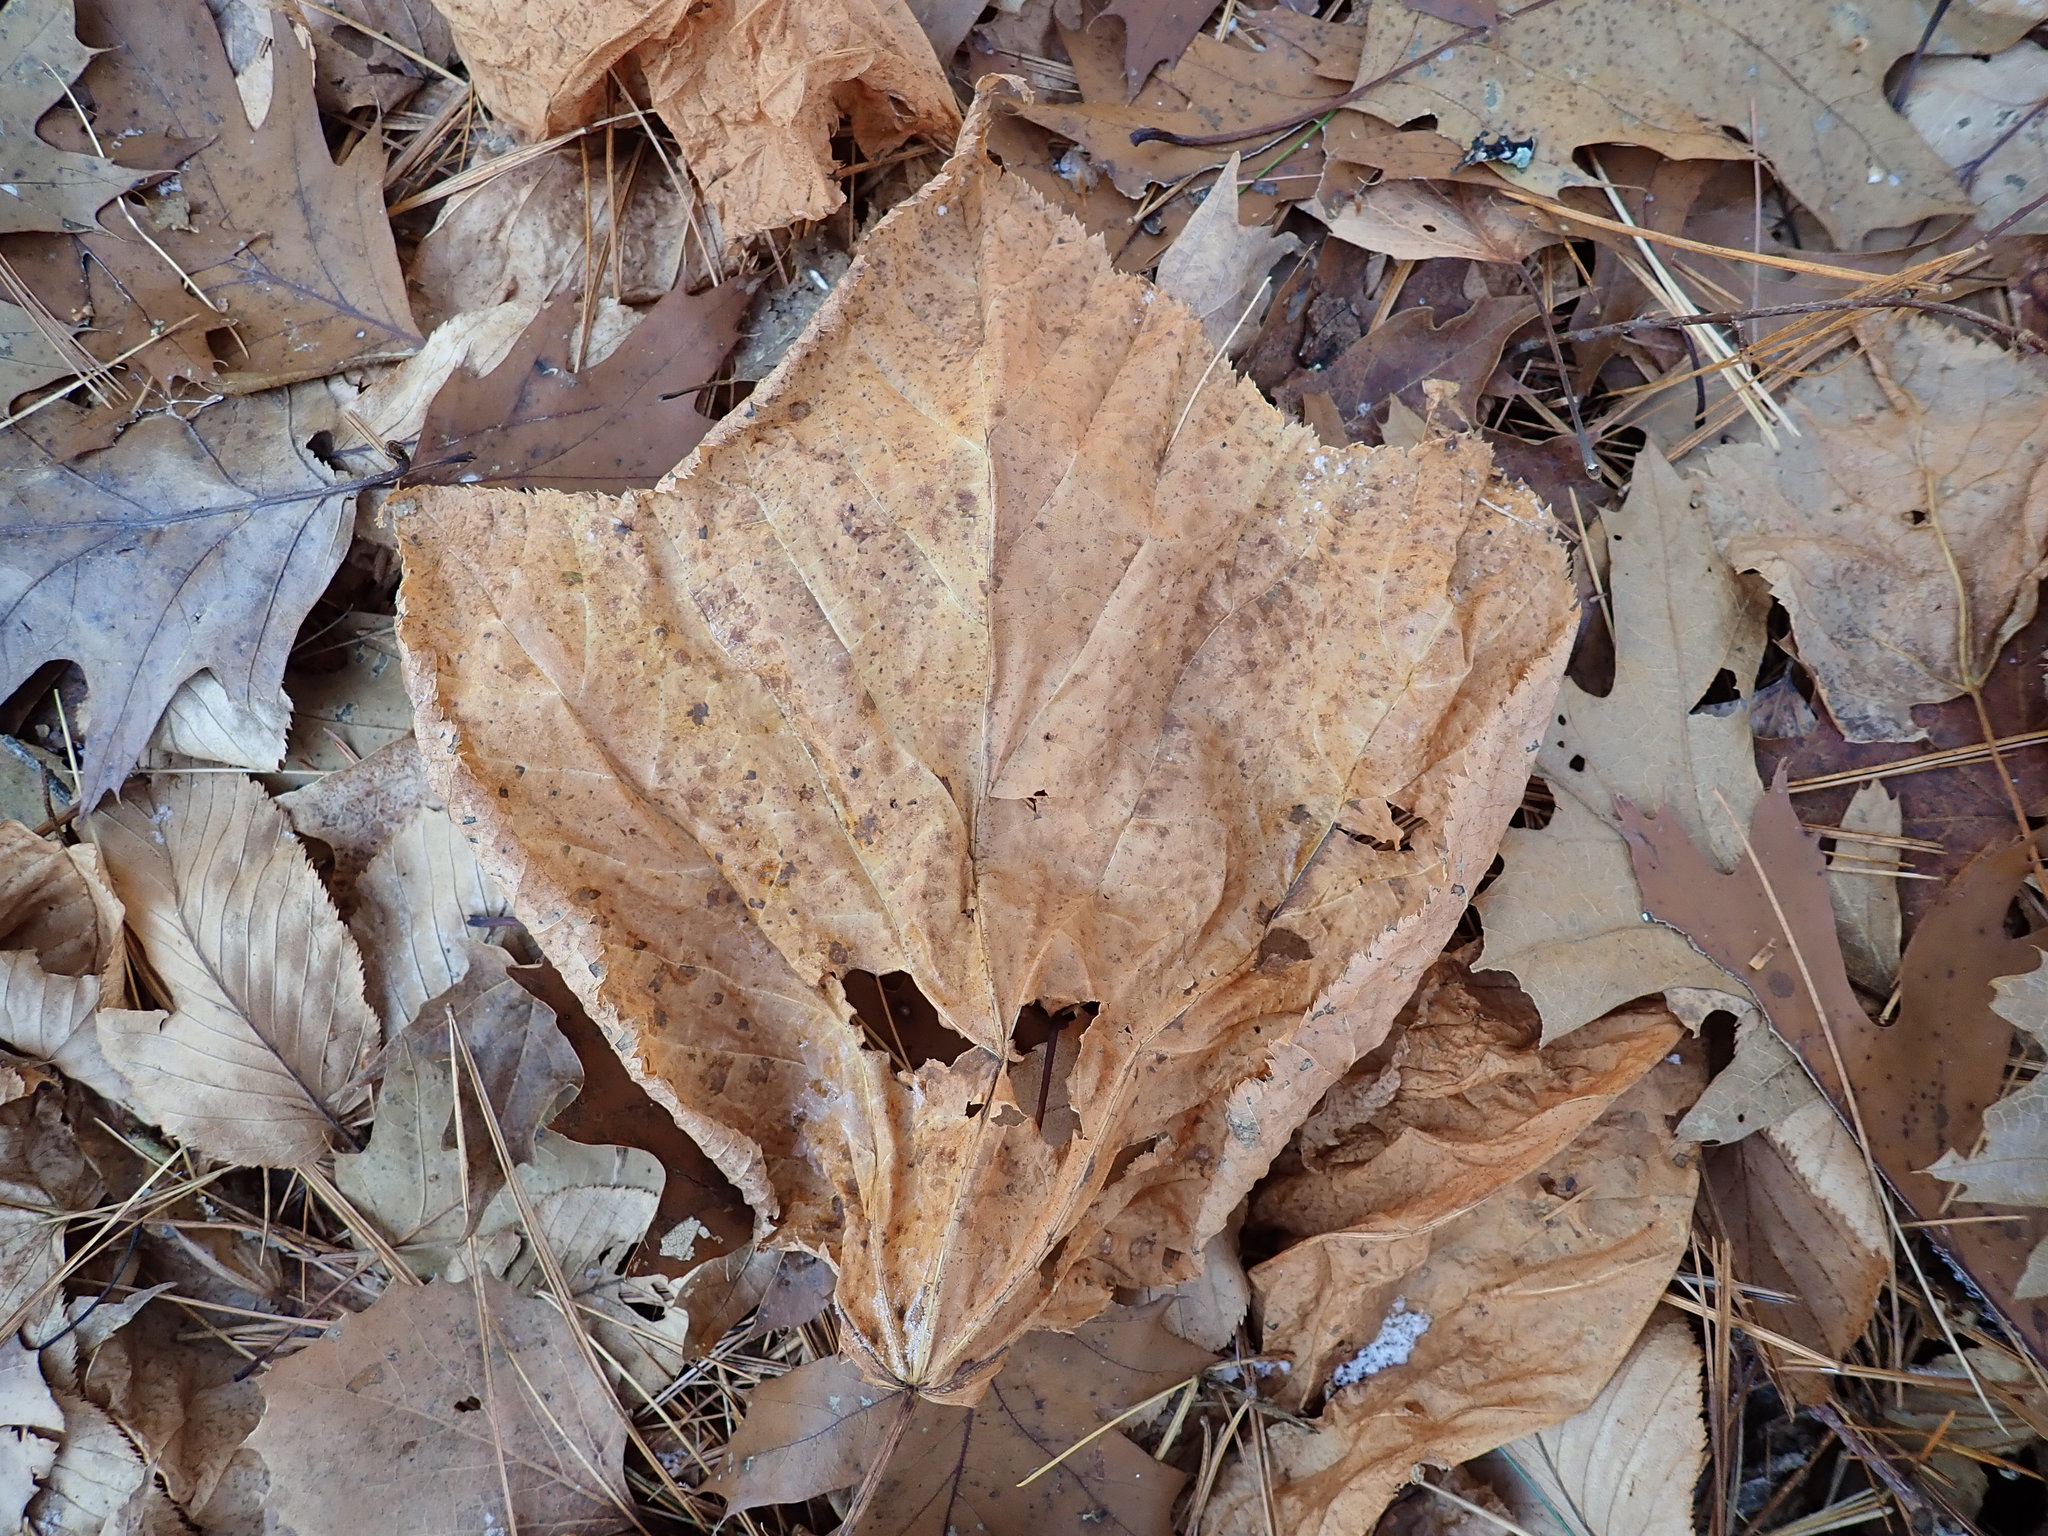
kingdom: Plantae
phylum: Tracheophyta
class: Magnoliopsida
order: Sapindales
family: Sapindaceae
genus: Acer
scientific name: Acer pensylvanicum
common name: Moosewood
